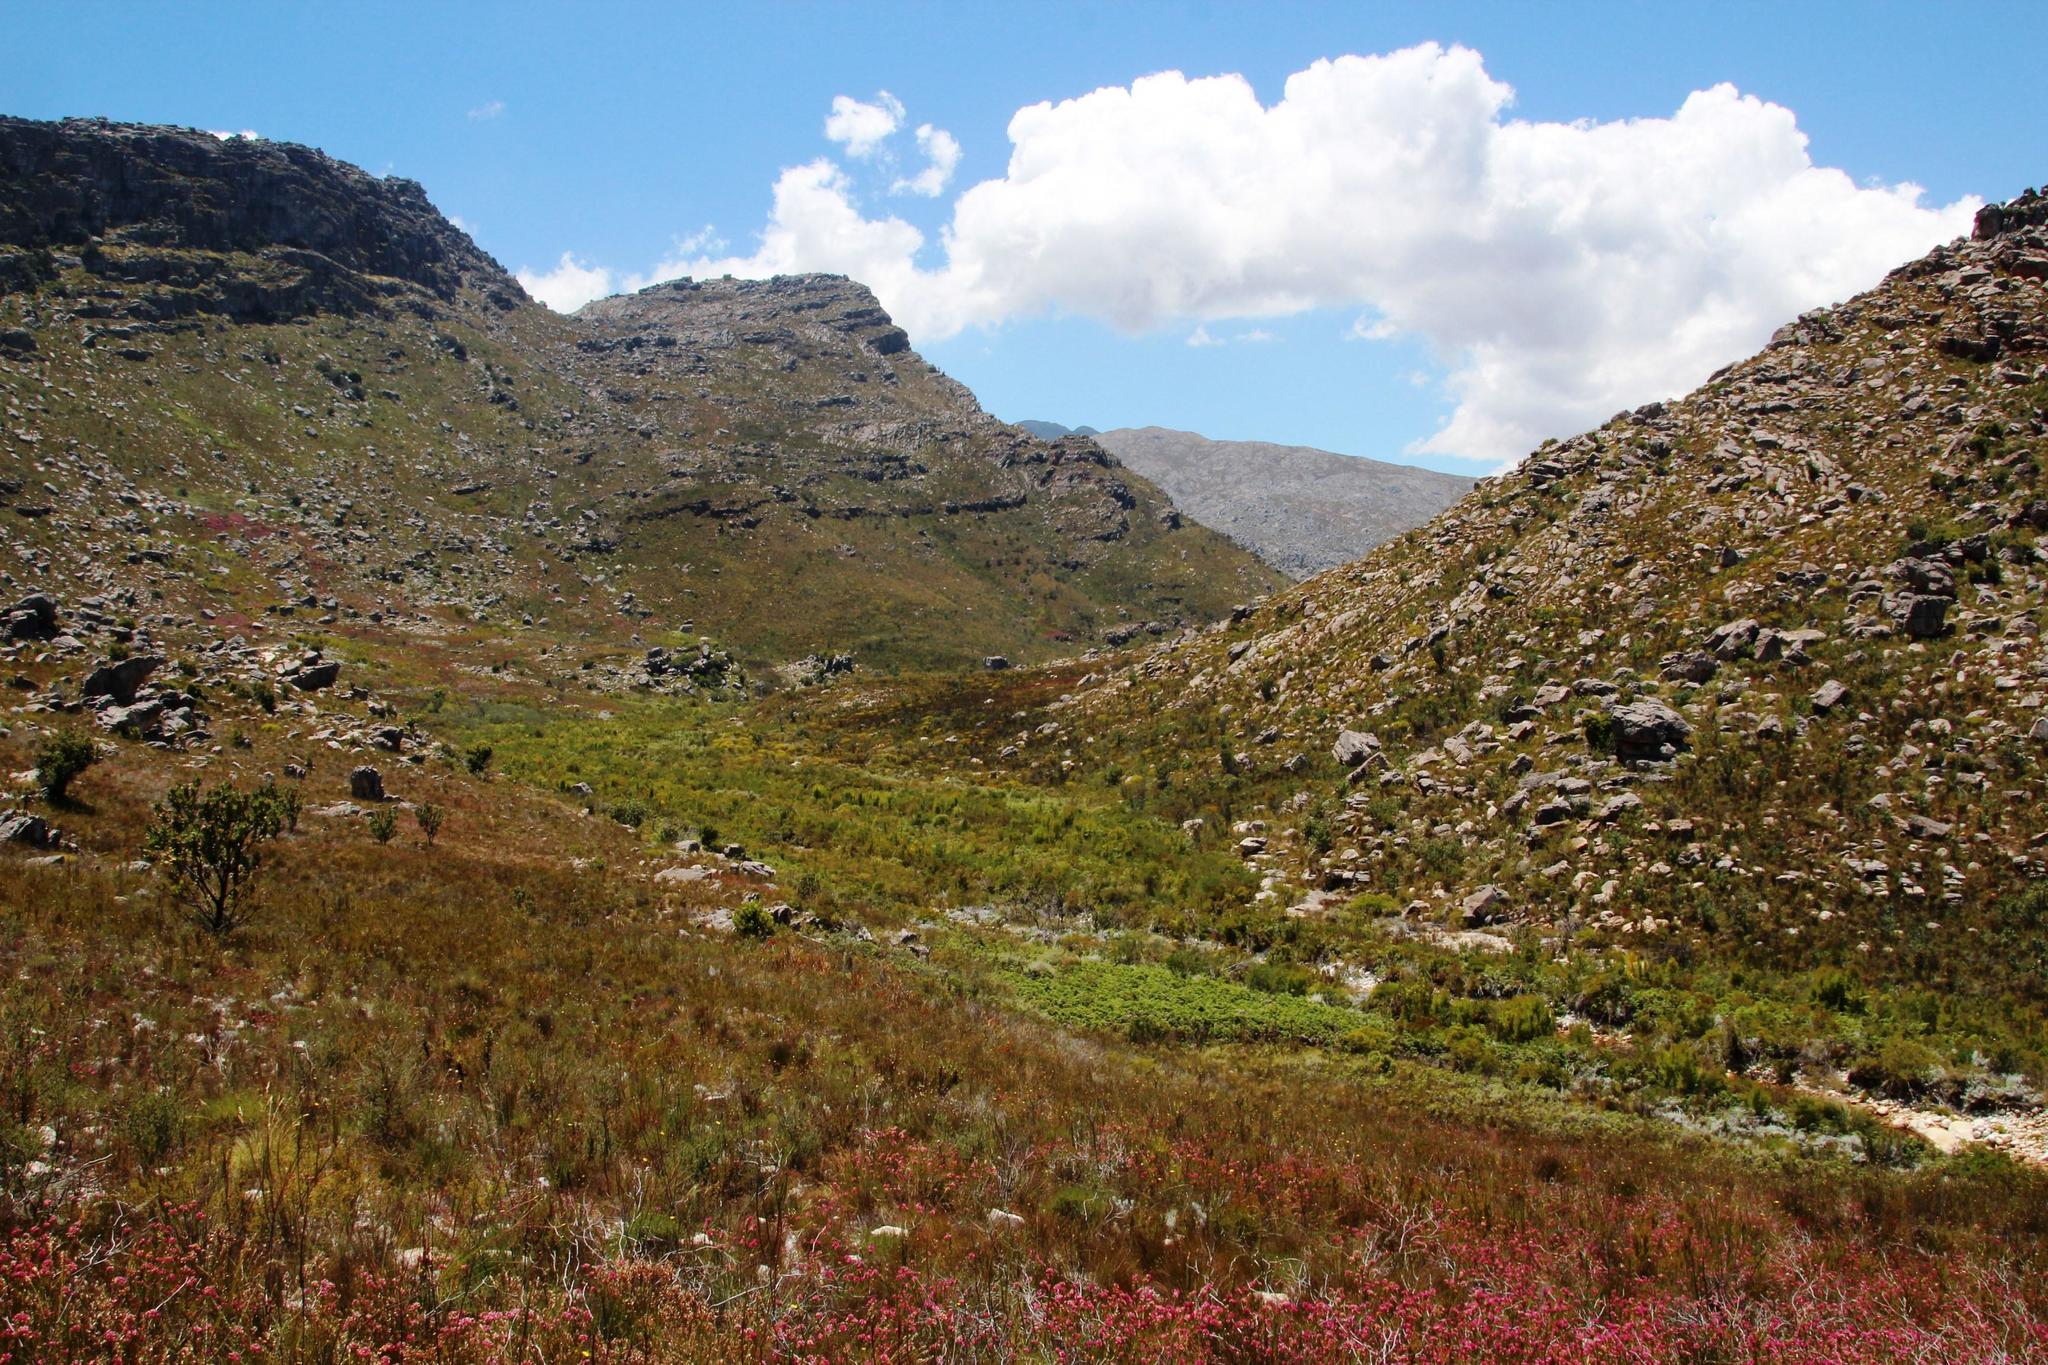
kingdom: Plantae
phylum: Tracheophyta
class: Magnoliopsida
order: Ericales
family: Ericaceae
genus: Erica
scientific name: Erica inflata
